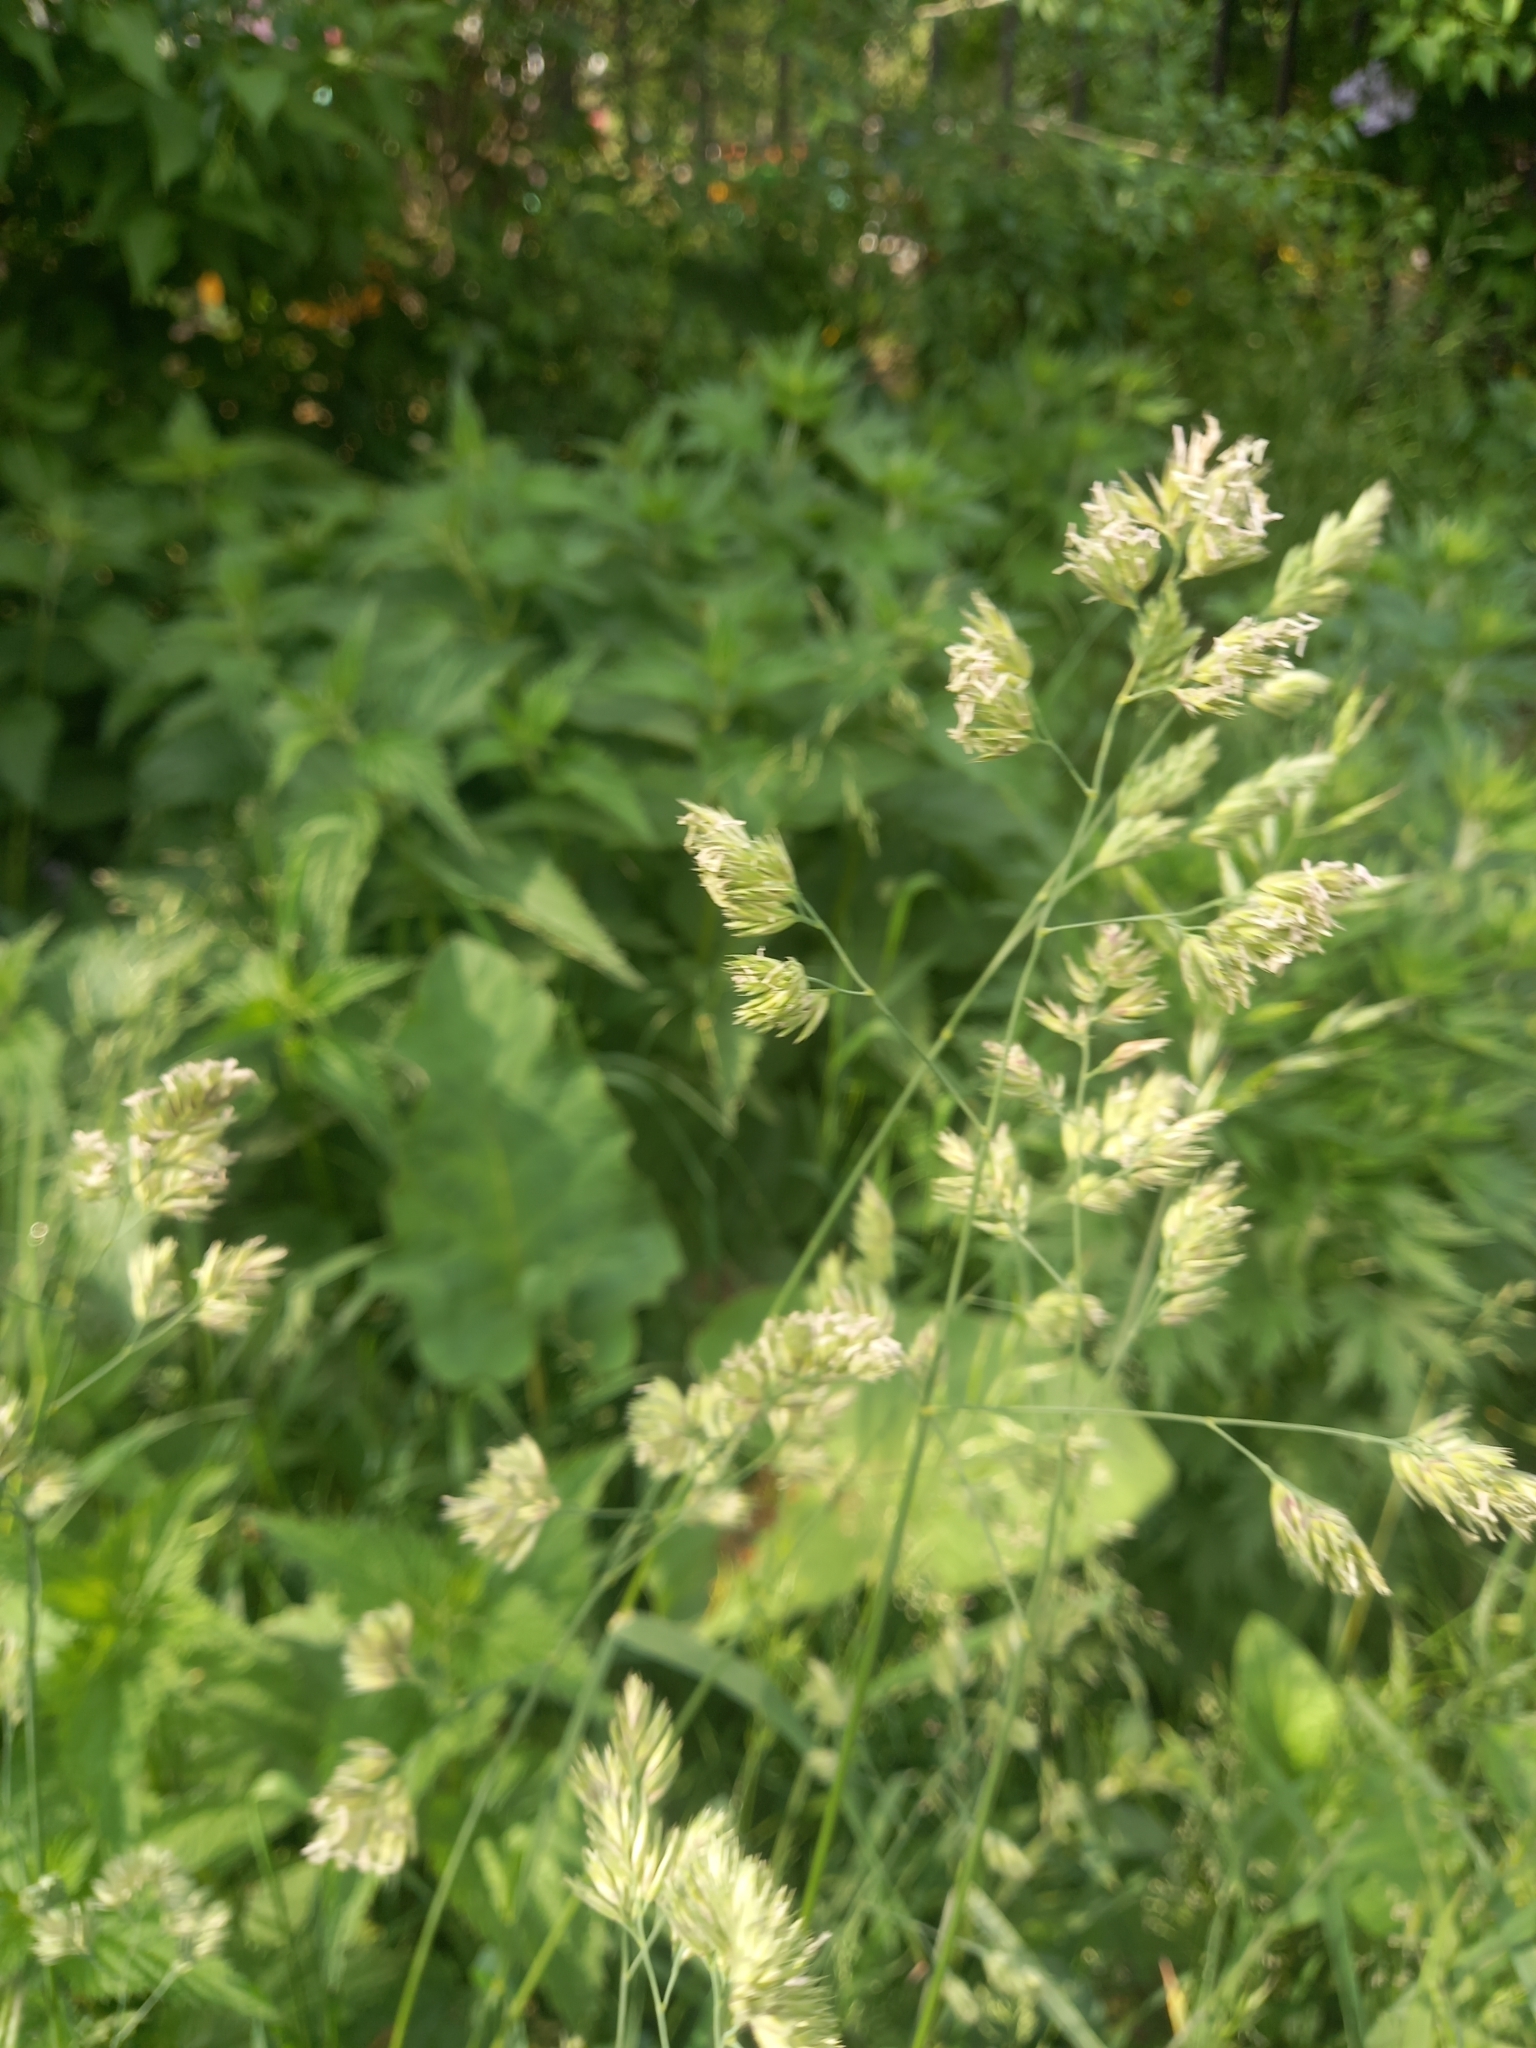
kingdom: Plantae
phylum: Tracheophyta
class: Liliopsida
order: Poales
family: Poaceae
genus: Dactylis
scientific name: Dactylis glomerata
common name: Orchardgrass
